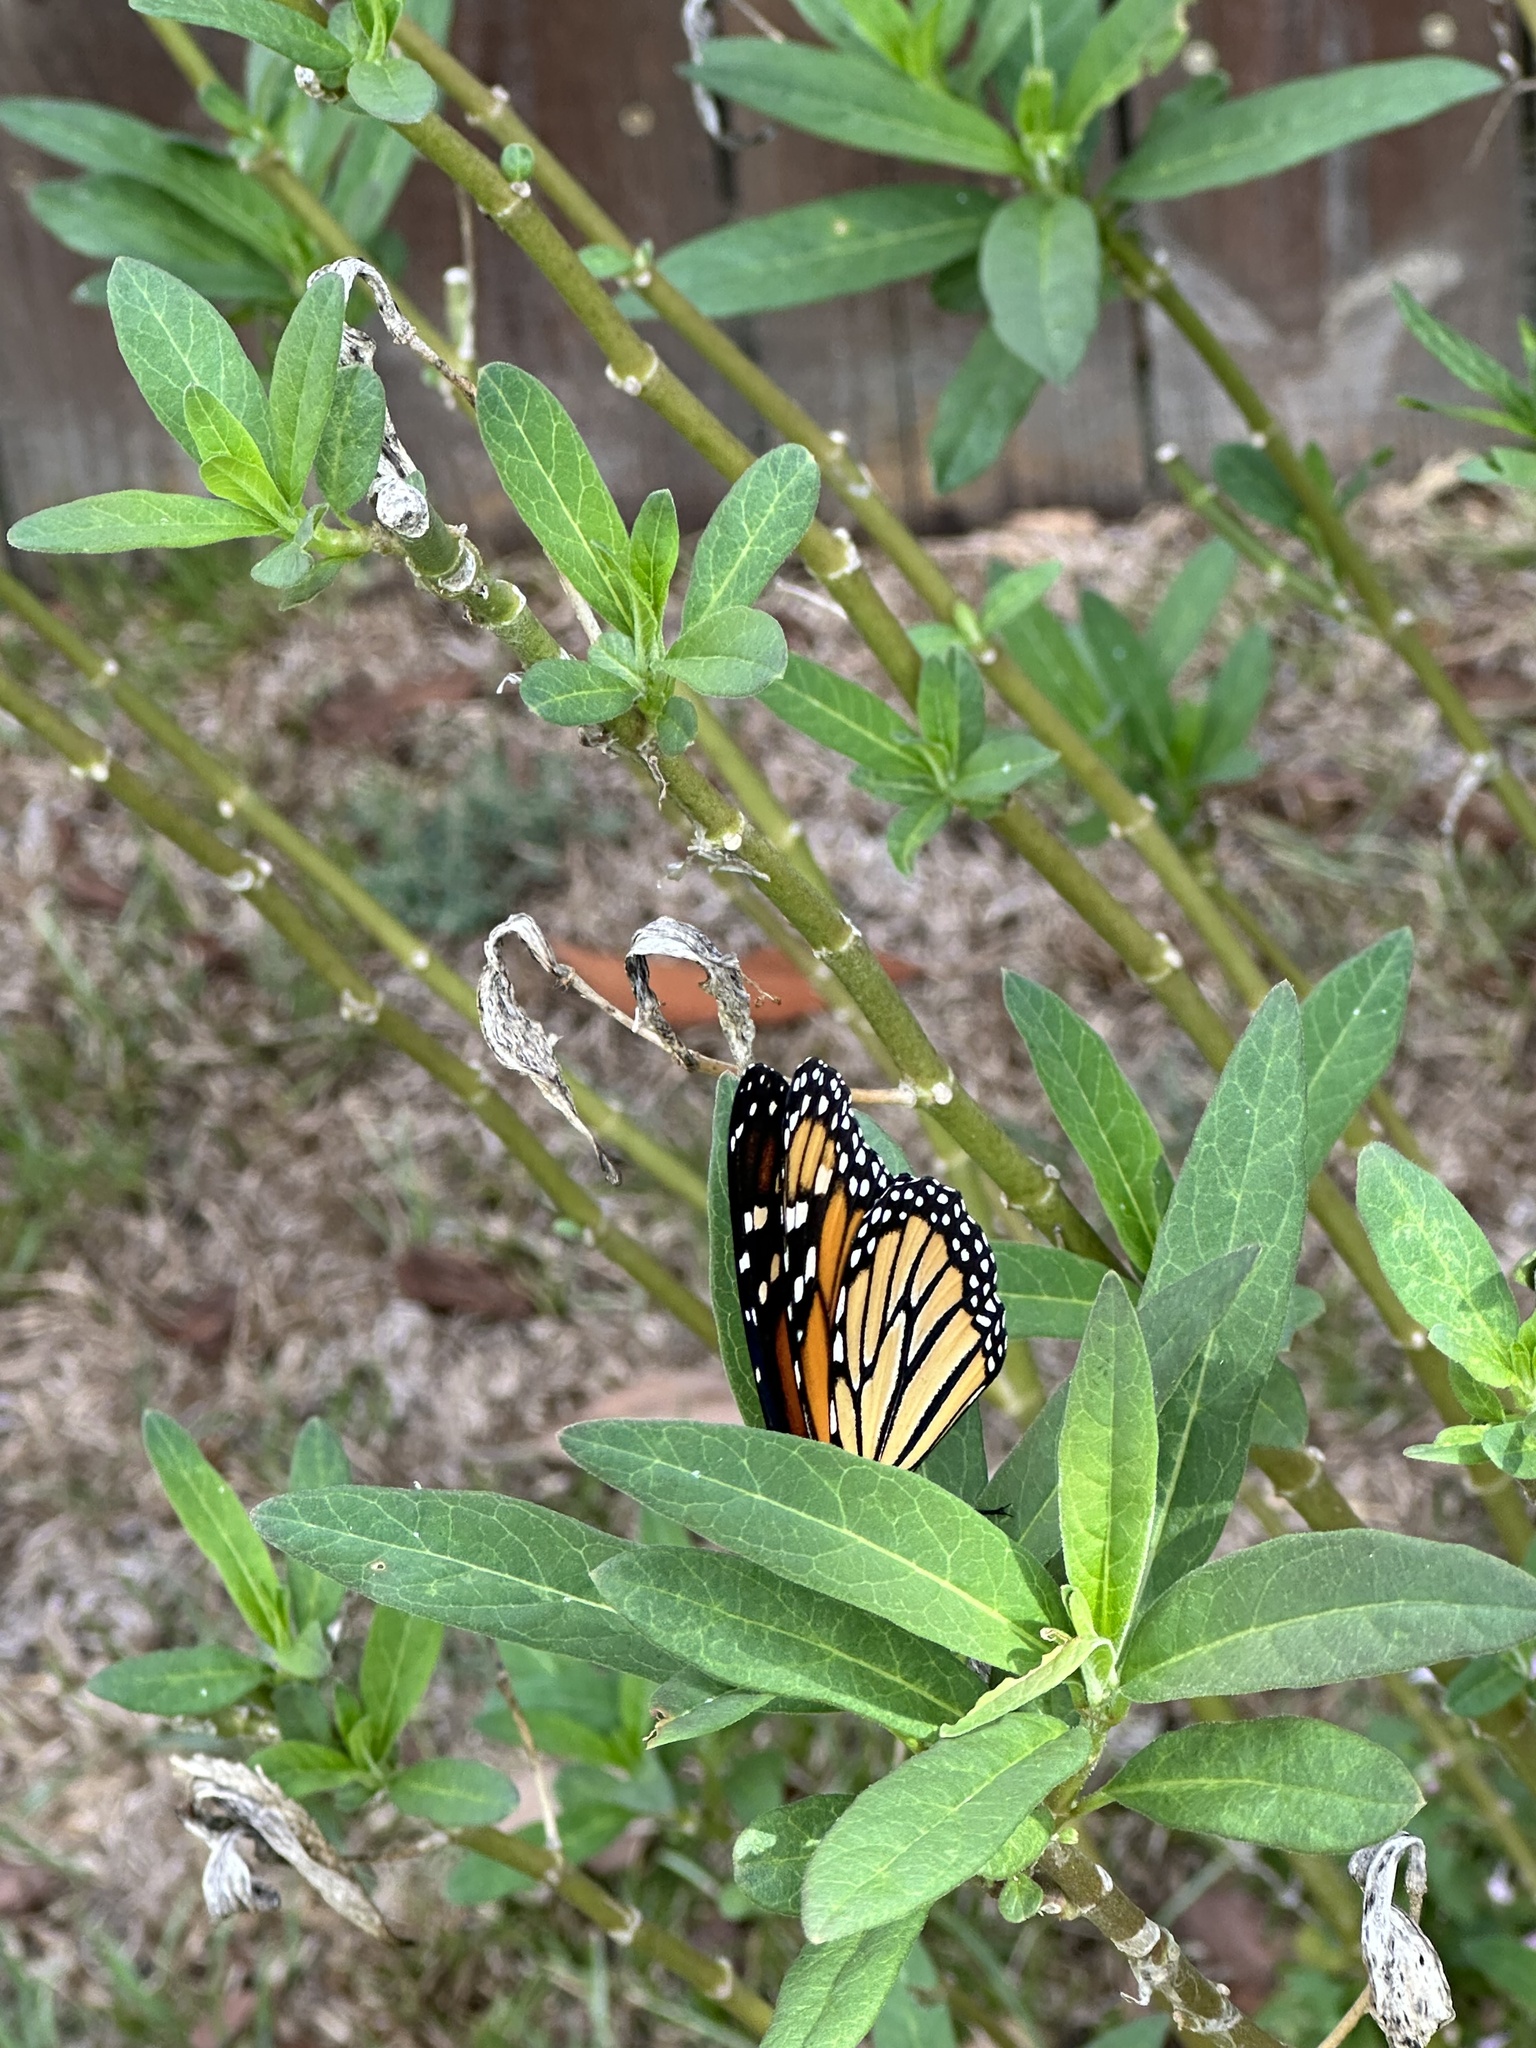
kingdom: Animalia
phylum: Arthropoda
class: Insecta
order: Lepidoptera
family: Nymphalidae
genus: Danaus
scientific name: Danaus plexippus
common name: Monarch
